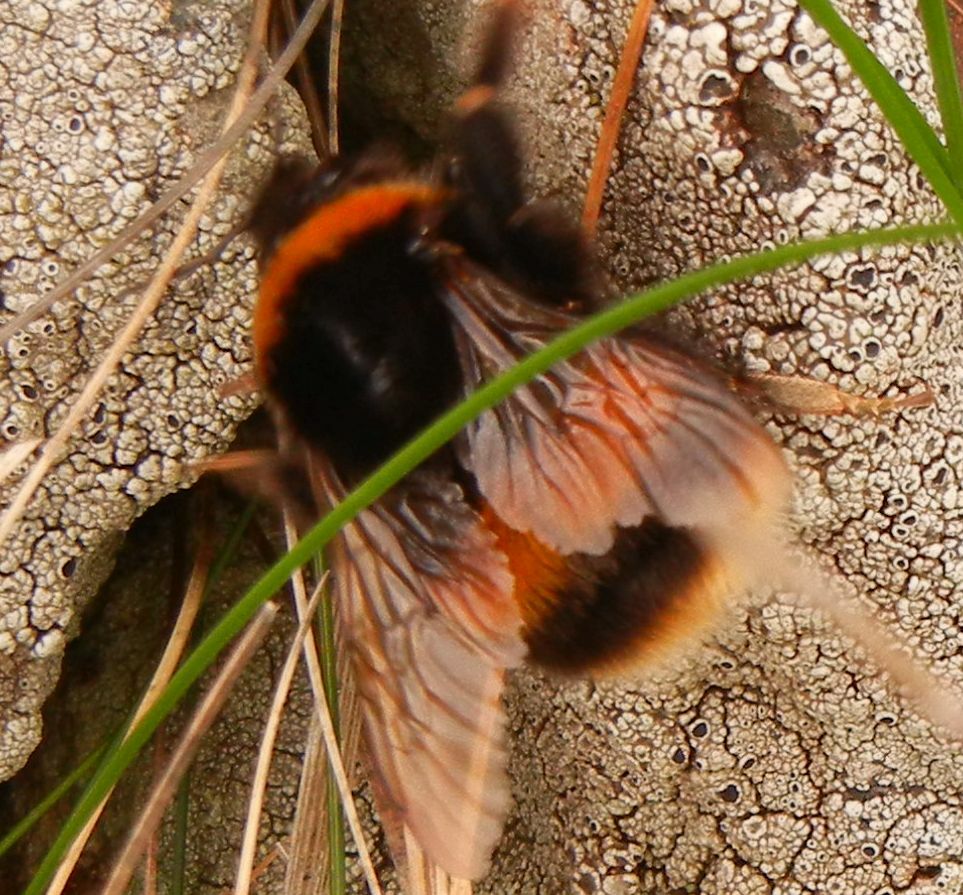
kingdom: Animalia
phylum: Arthropoda
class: Insecta
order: Hymenoptera
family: Apidae
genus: Bombus
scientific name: Bombus terrestris
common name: Buff-tailed bumblebee
